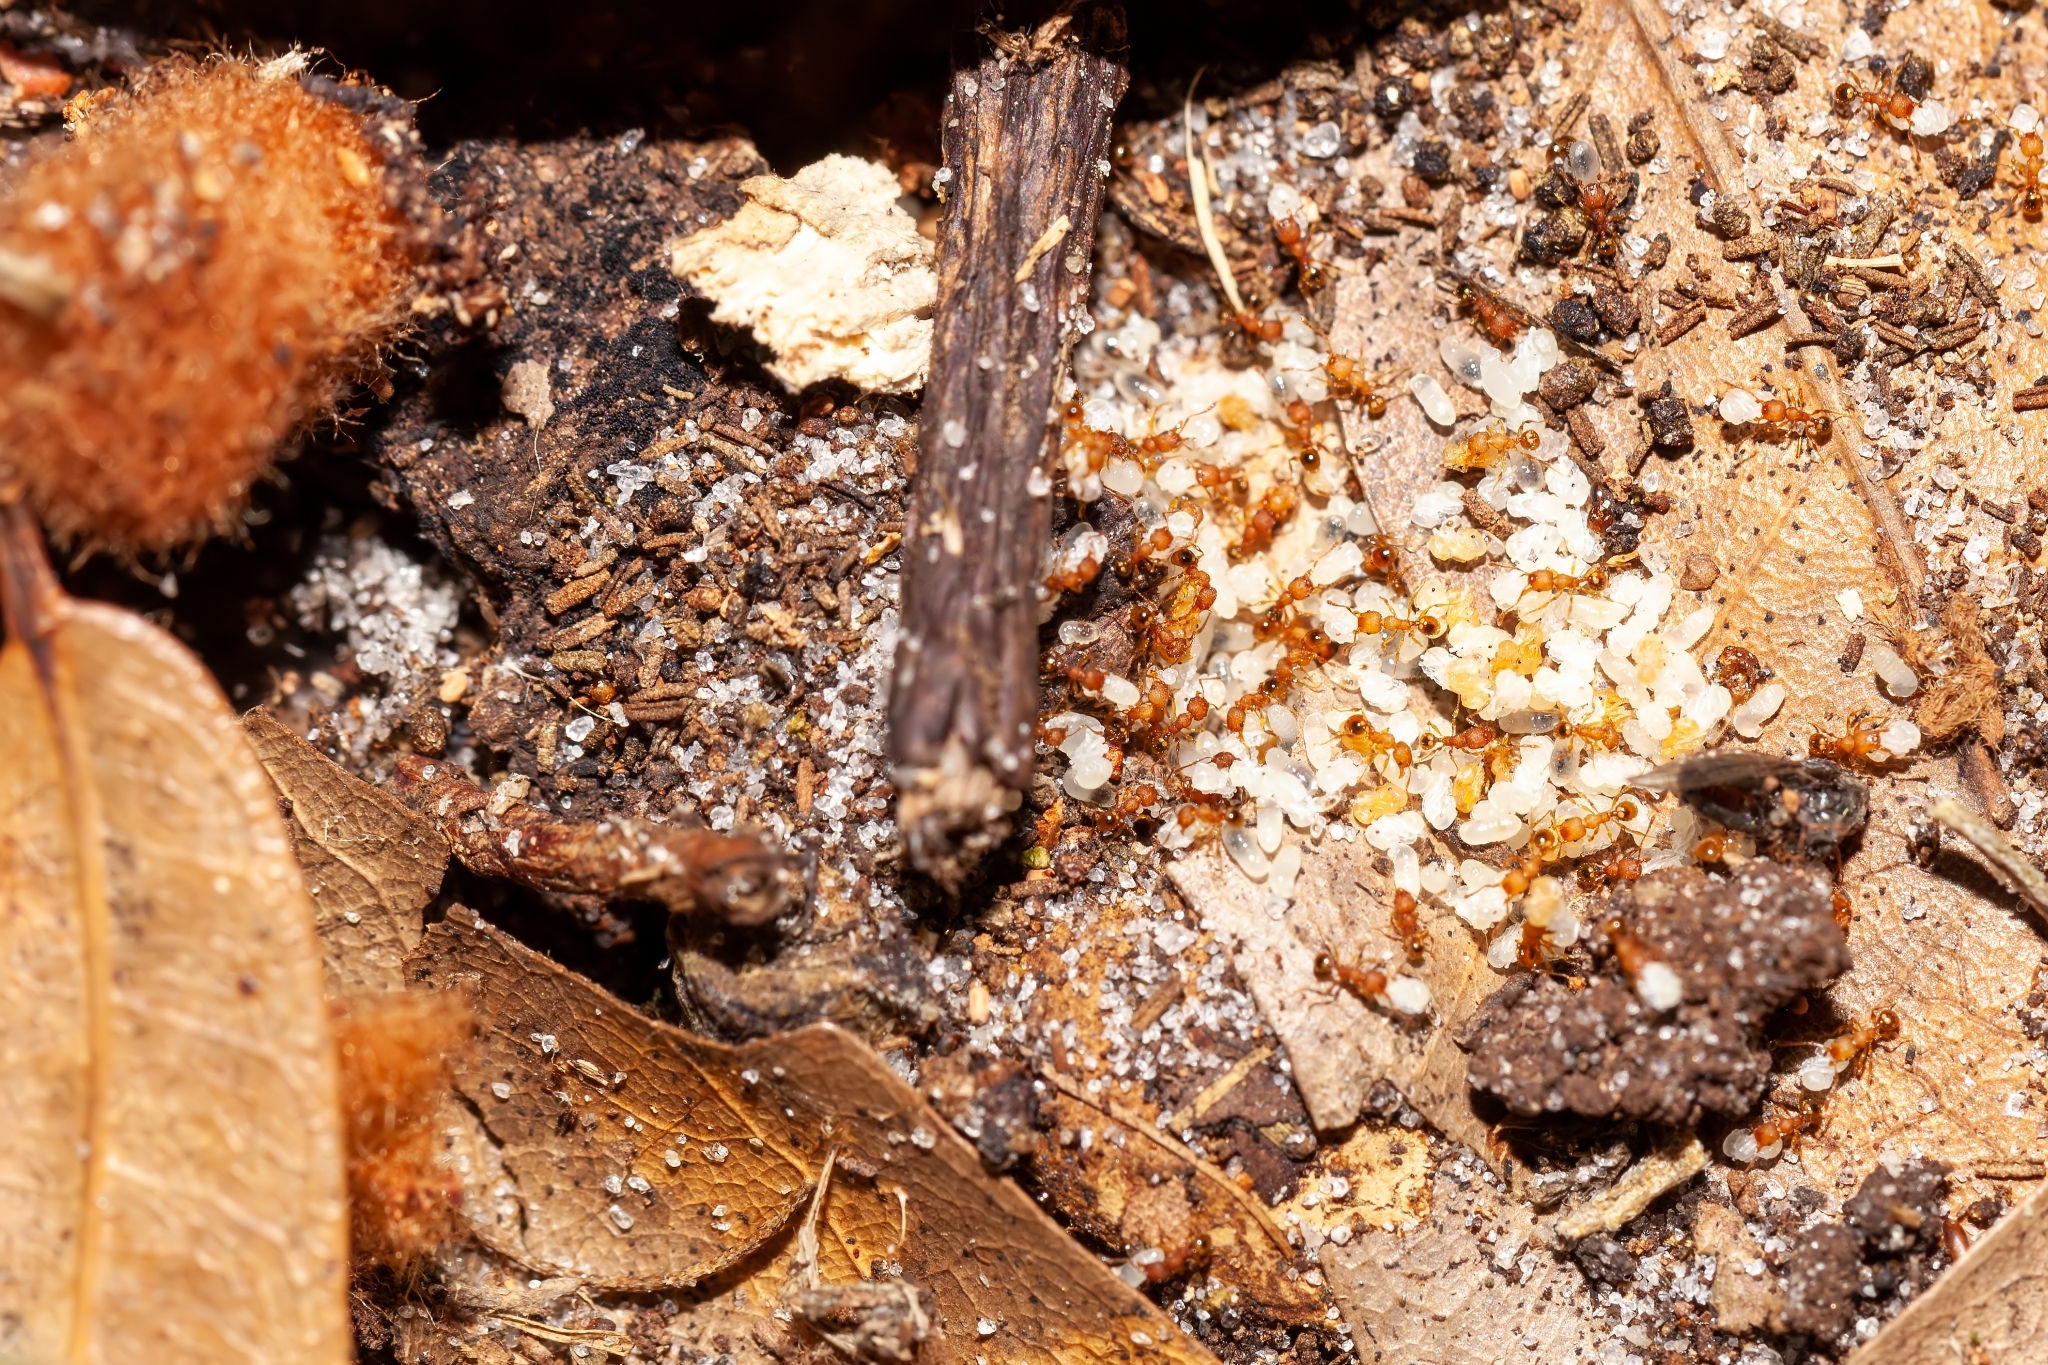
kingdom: Animalia
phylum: Arthropoda
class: Insecta
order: Hymenoptera
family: Formicidae
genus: Pheidole
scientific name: Pheidole navigans
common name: Navigating big-headed ant
